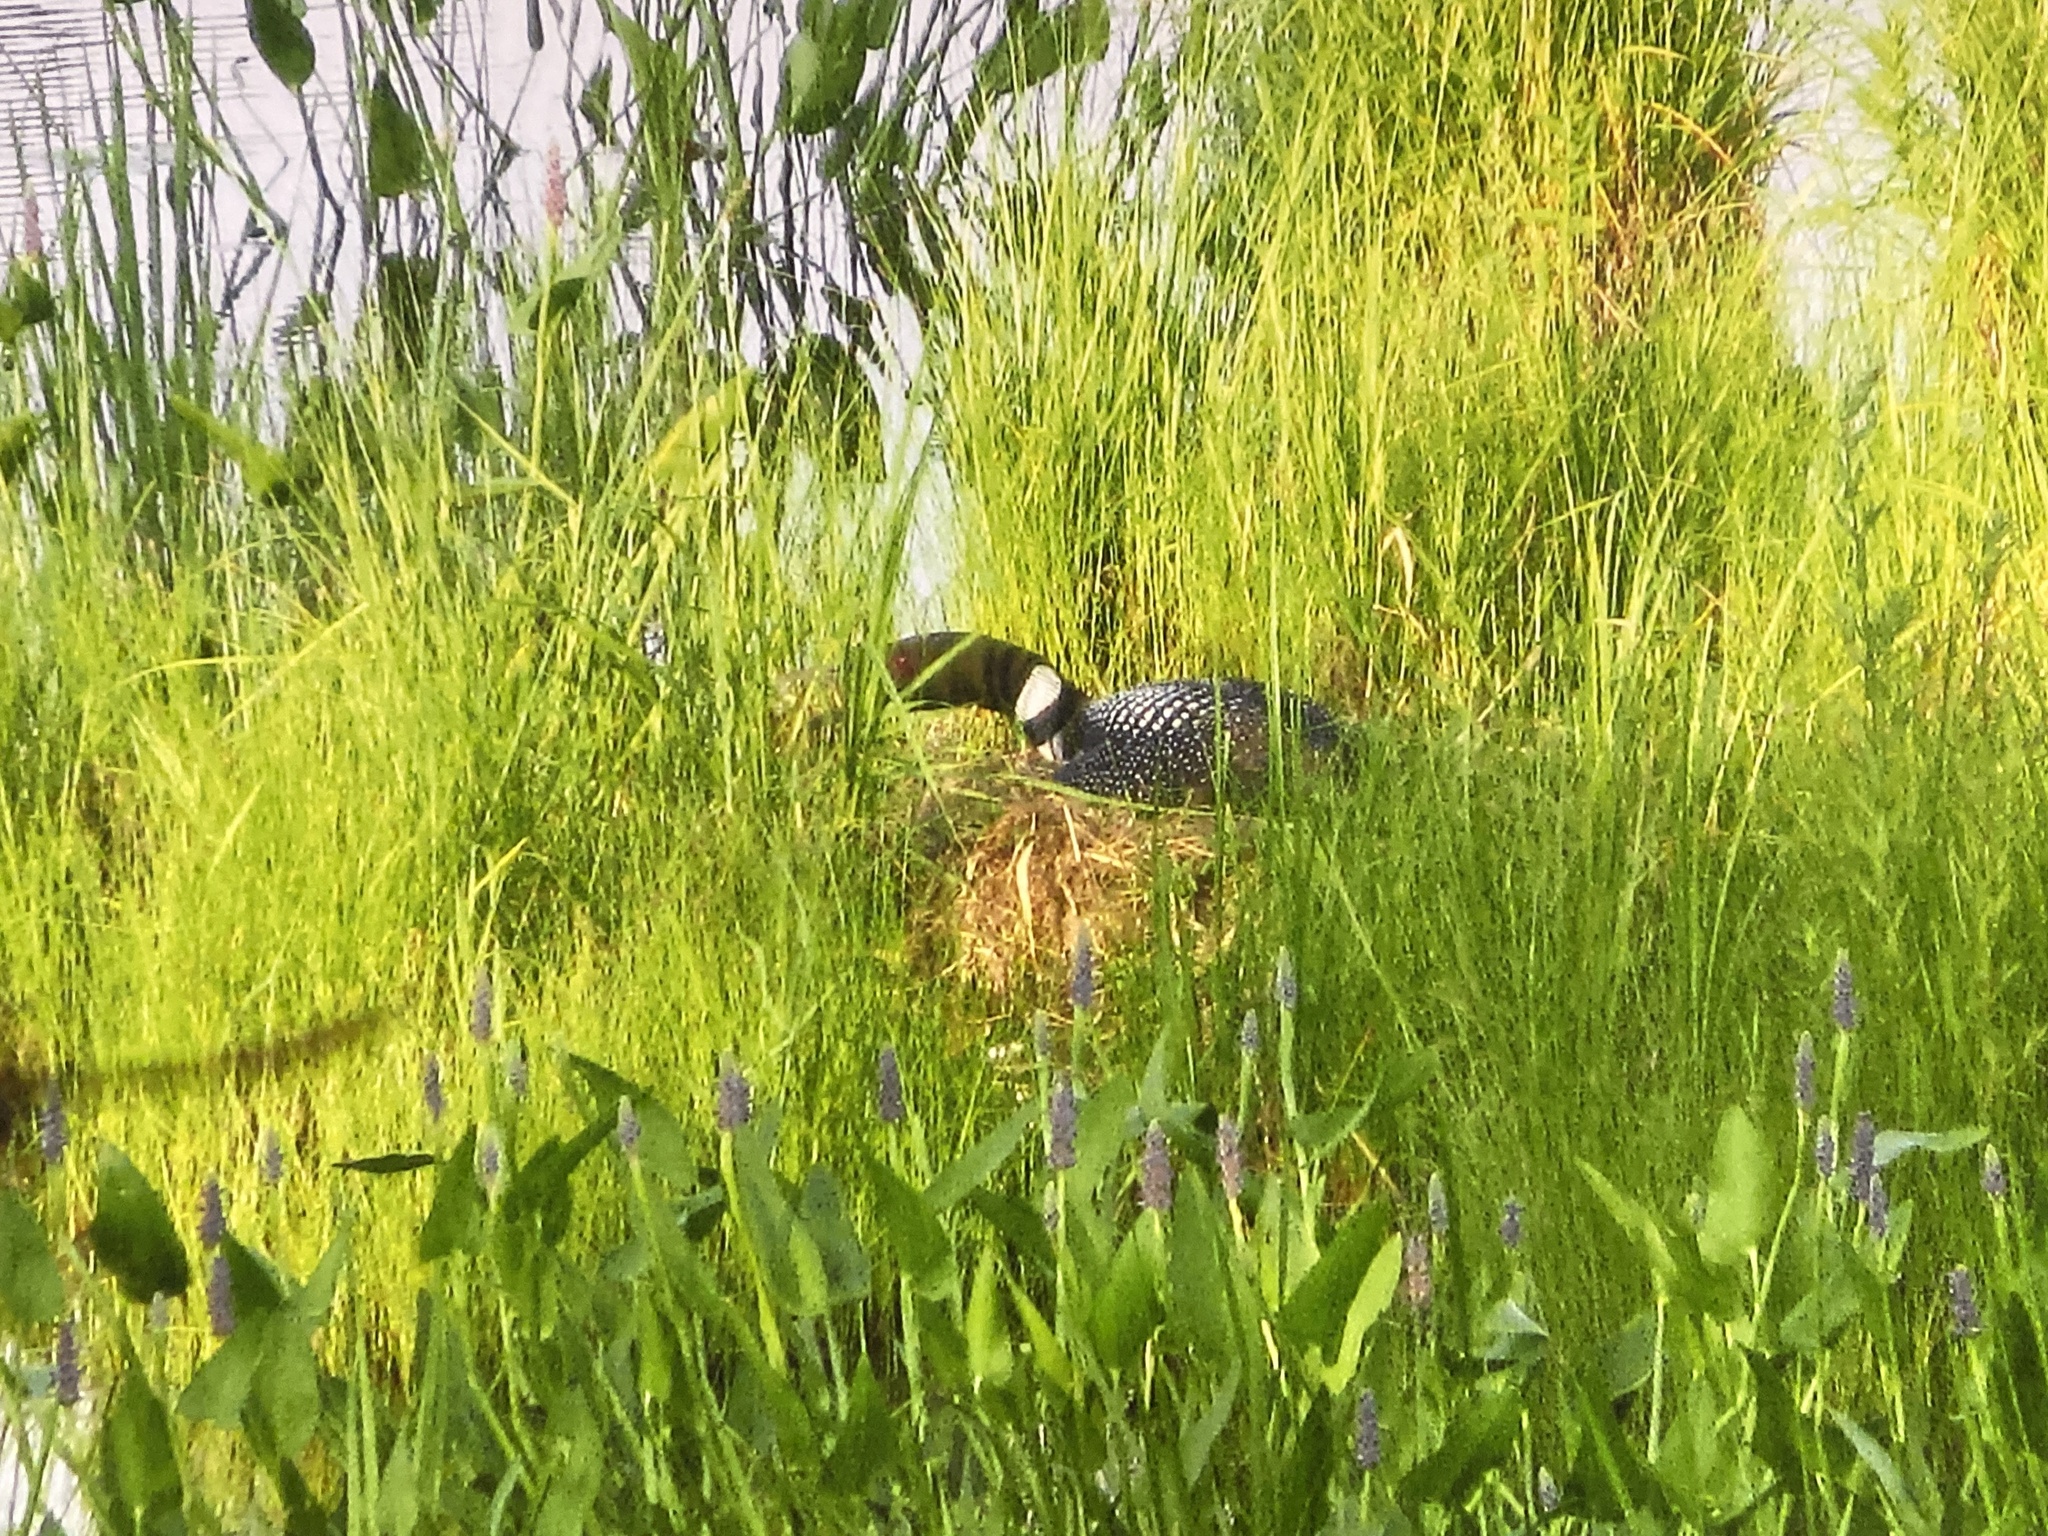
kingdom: Animalia
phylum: Chordata
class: Aves
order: Gaviiformes
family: Gaviidae
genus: Gavia
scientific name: Gavia immer
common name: Common loon
